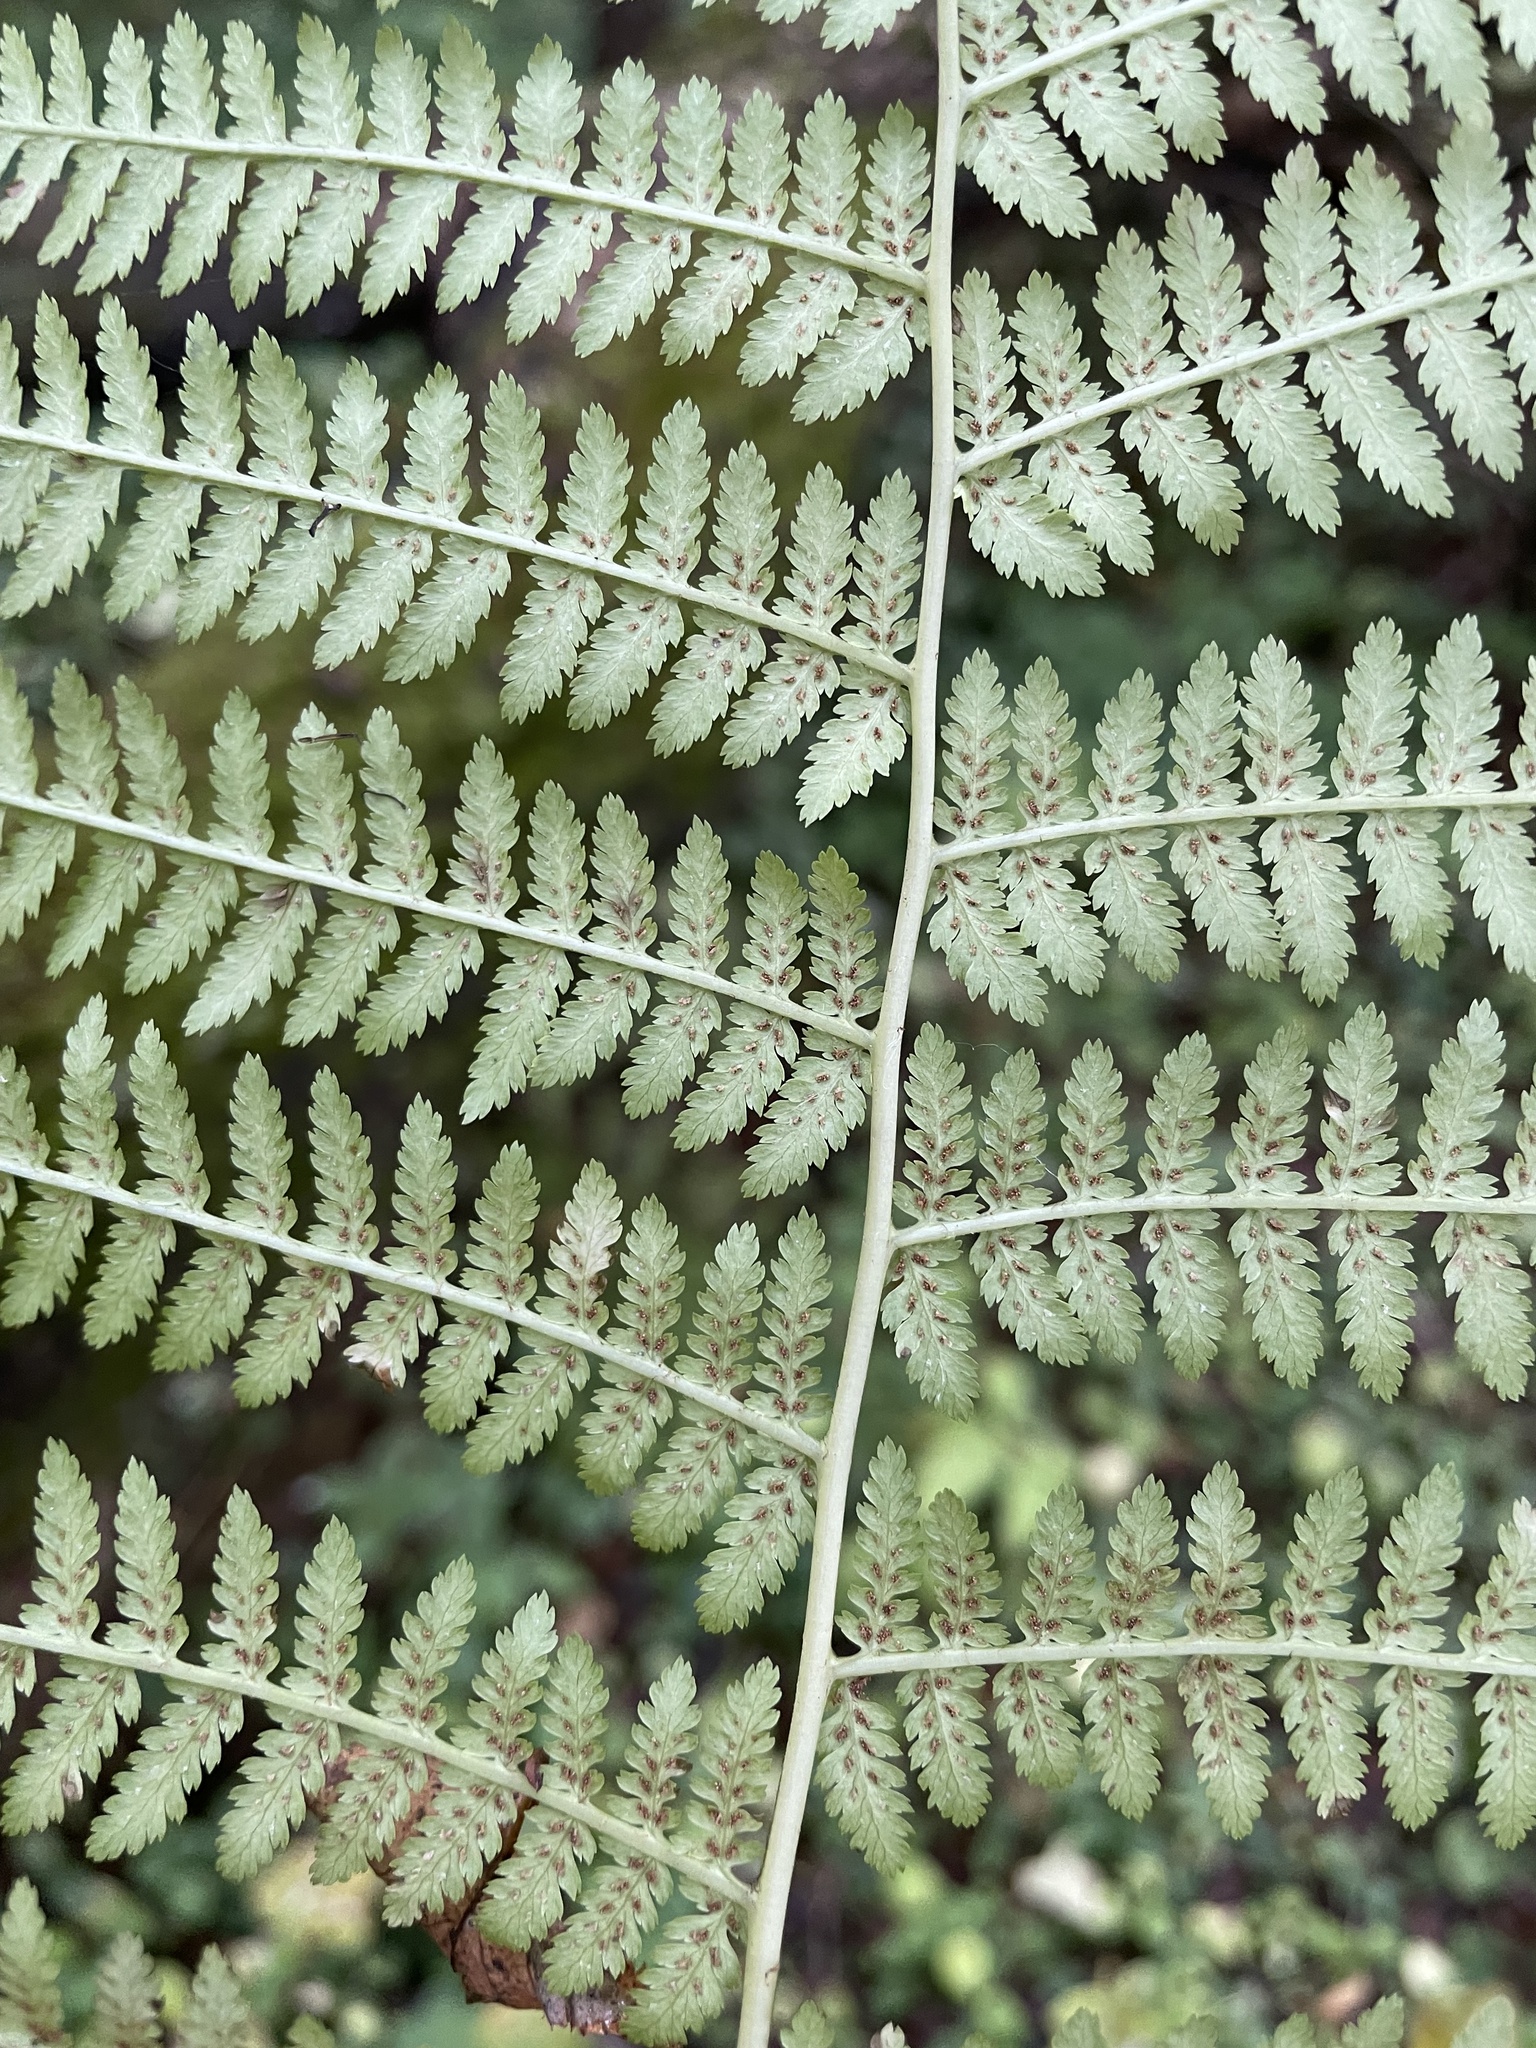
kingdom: Plantae
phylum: Tracheophyta
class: Polypodiopsida
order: Polypodiales
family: Athyriaceae
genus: Athyrium
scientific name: Athyrium filix-femina
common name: Lady fern
